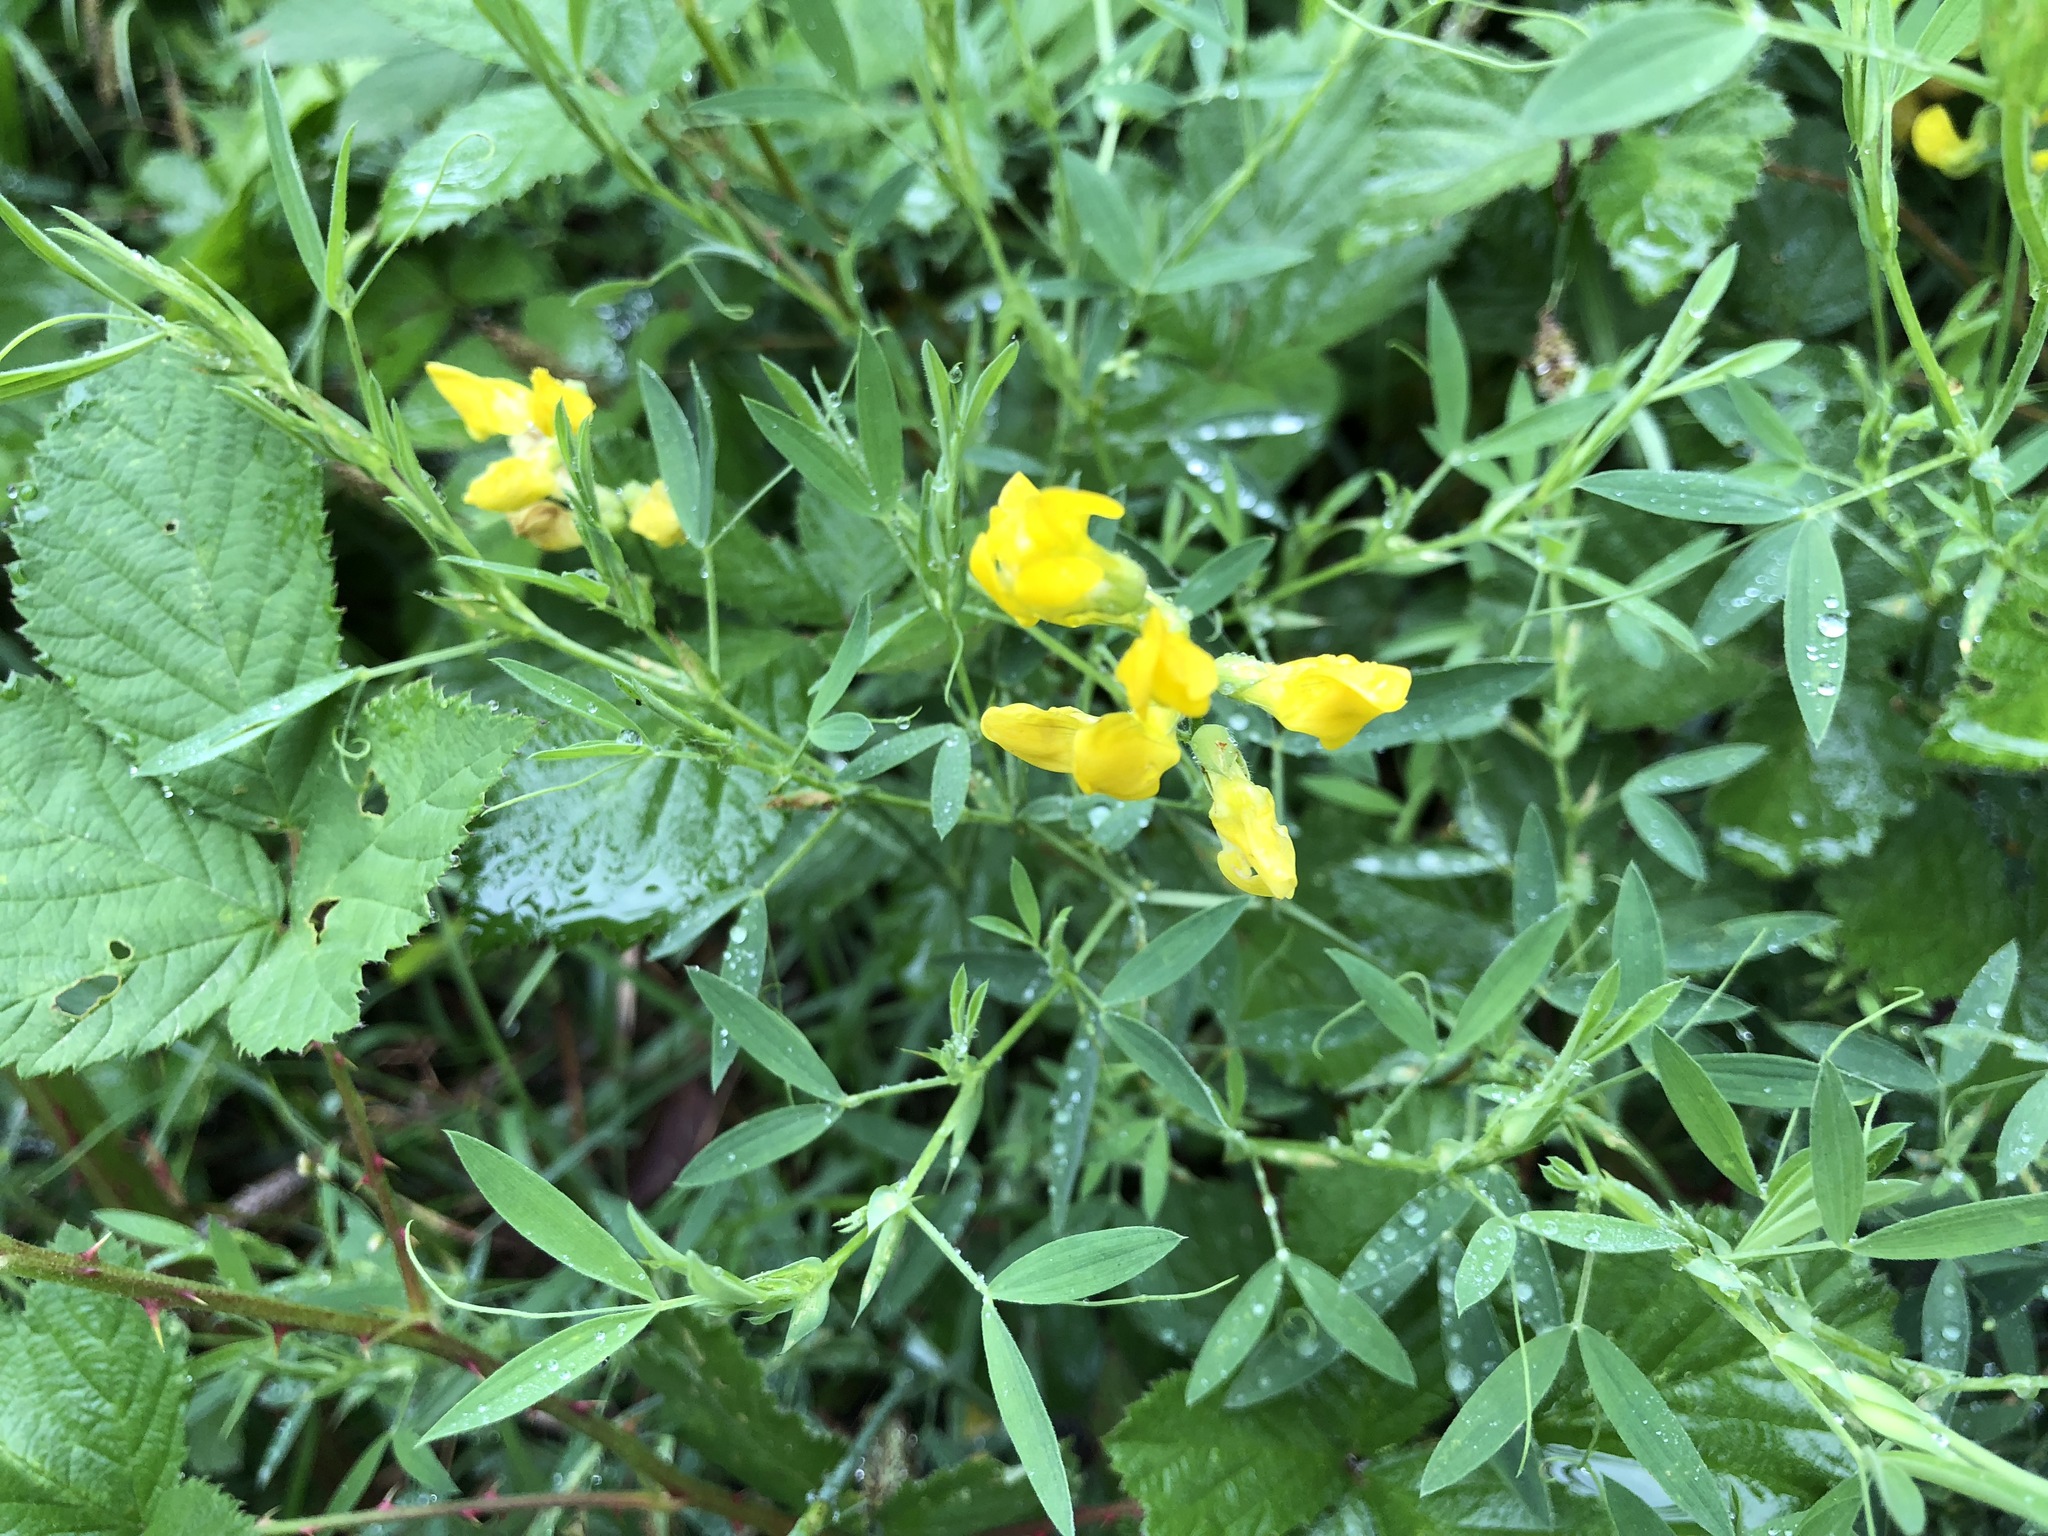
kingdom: Plantae
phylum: Tracheophyta
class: Magnoliopsida
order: Fabales
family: Fabaceae
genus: Lathyrus
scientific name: Lathyrus pratensis
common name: Meadow vetchling
